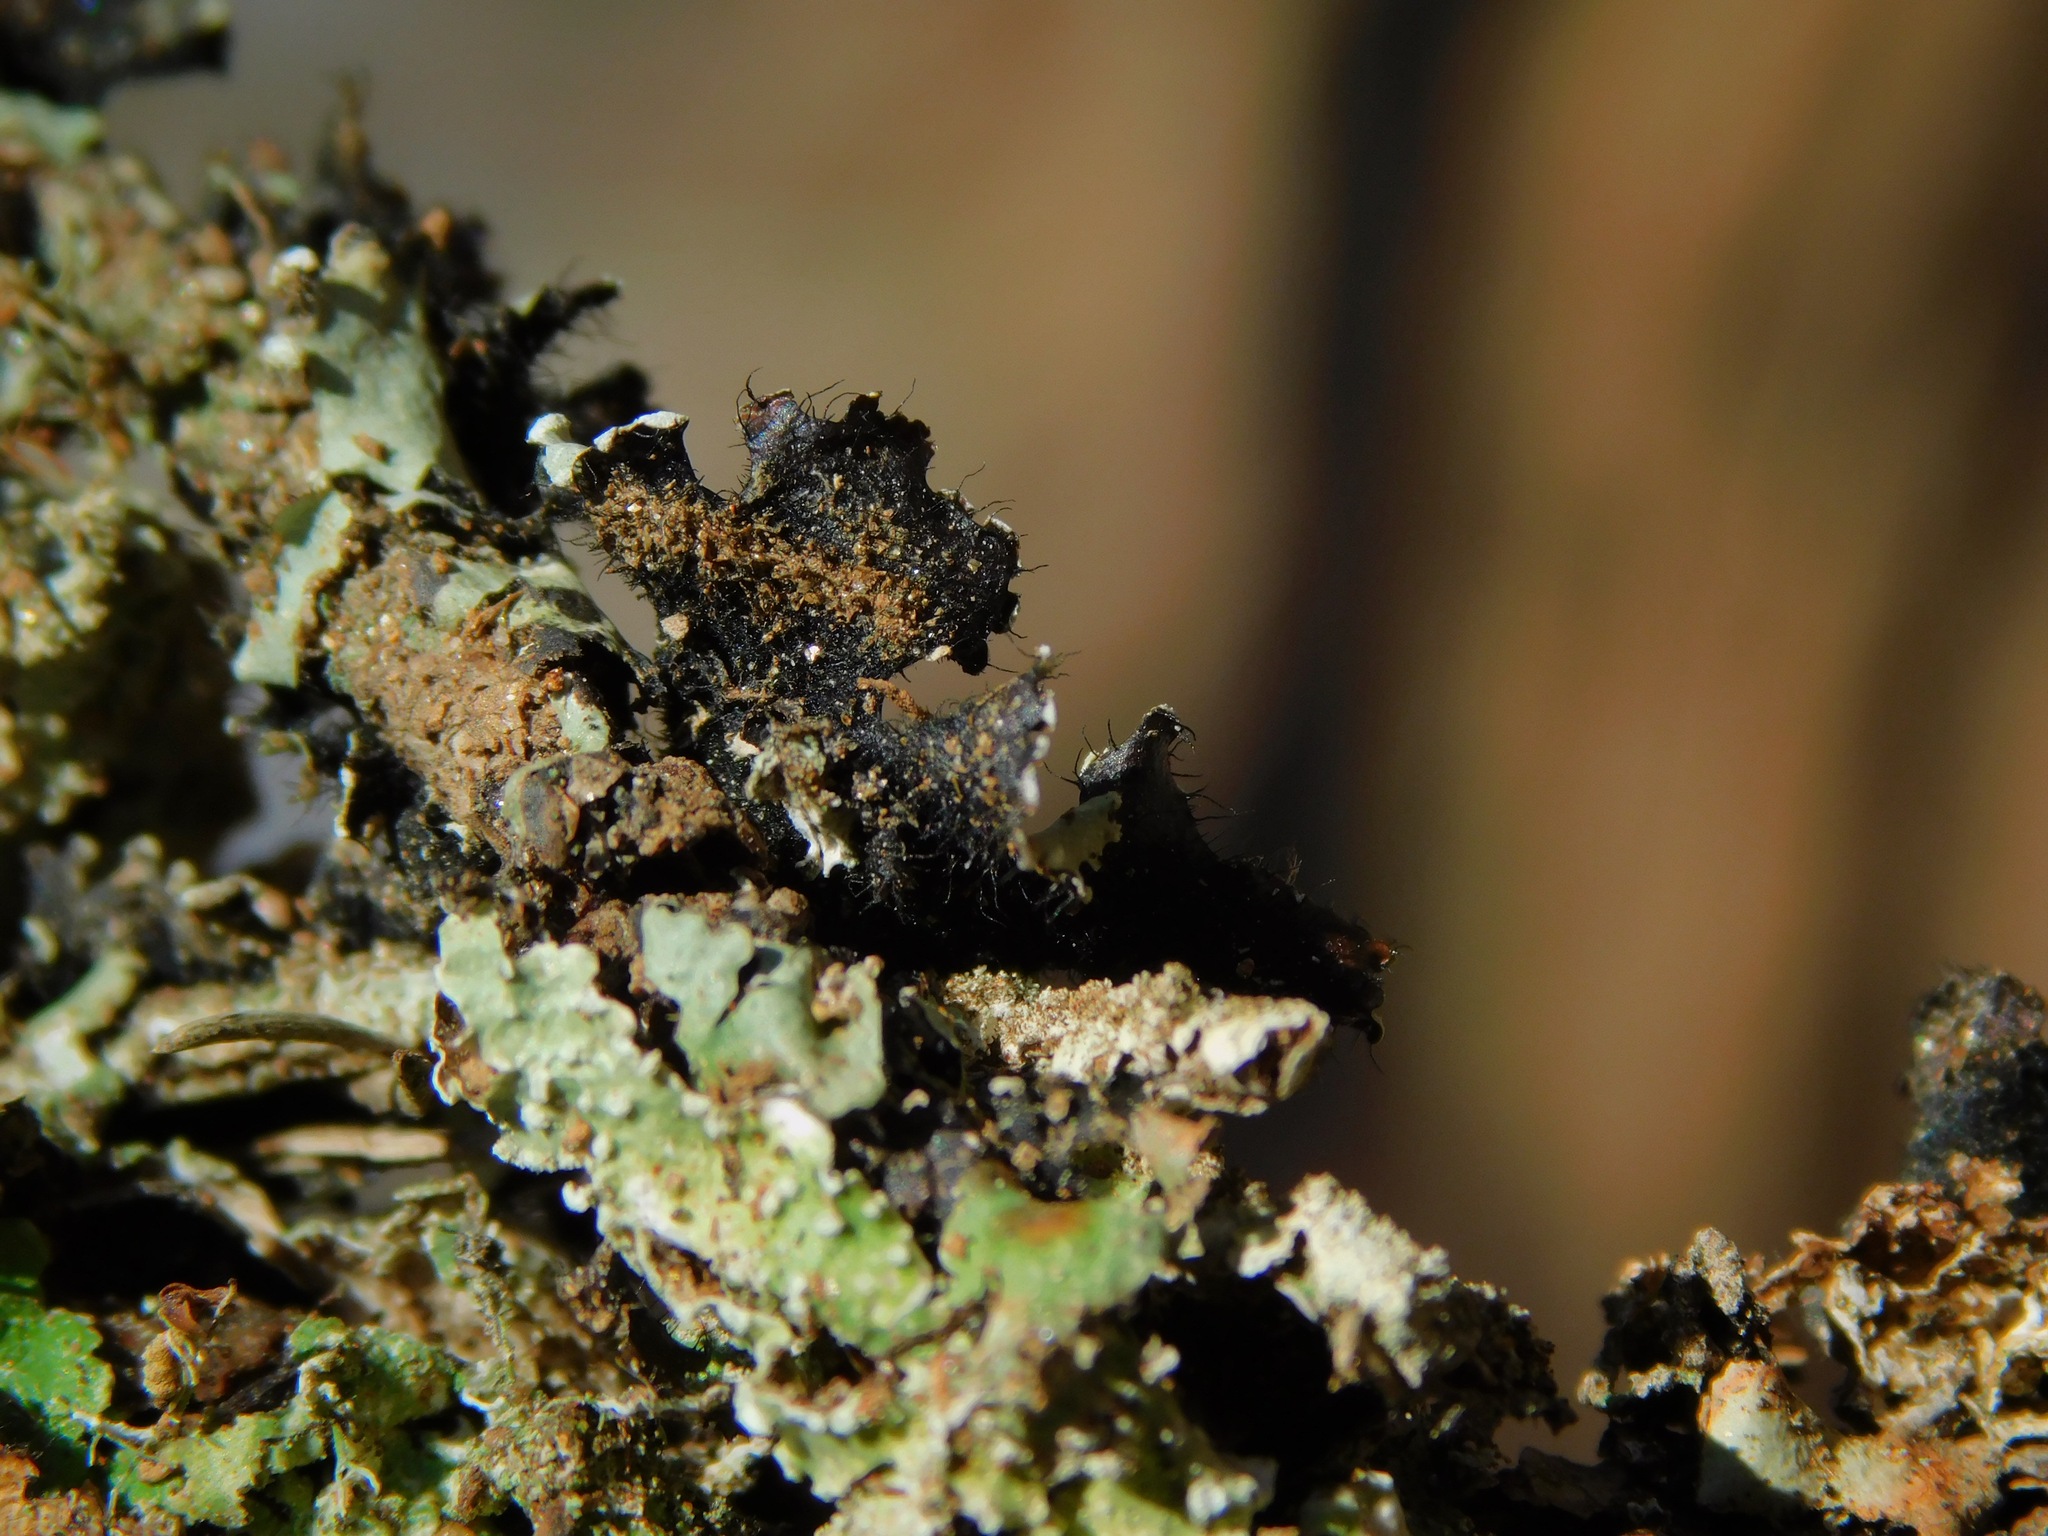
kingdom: Fungi
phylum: Ascomycota
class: Lecanoromycetes
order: Lecanorales
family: Parmeliaceae
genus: Hypotrachyna
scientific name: Hypotrachyna minarum
